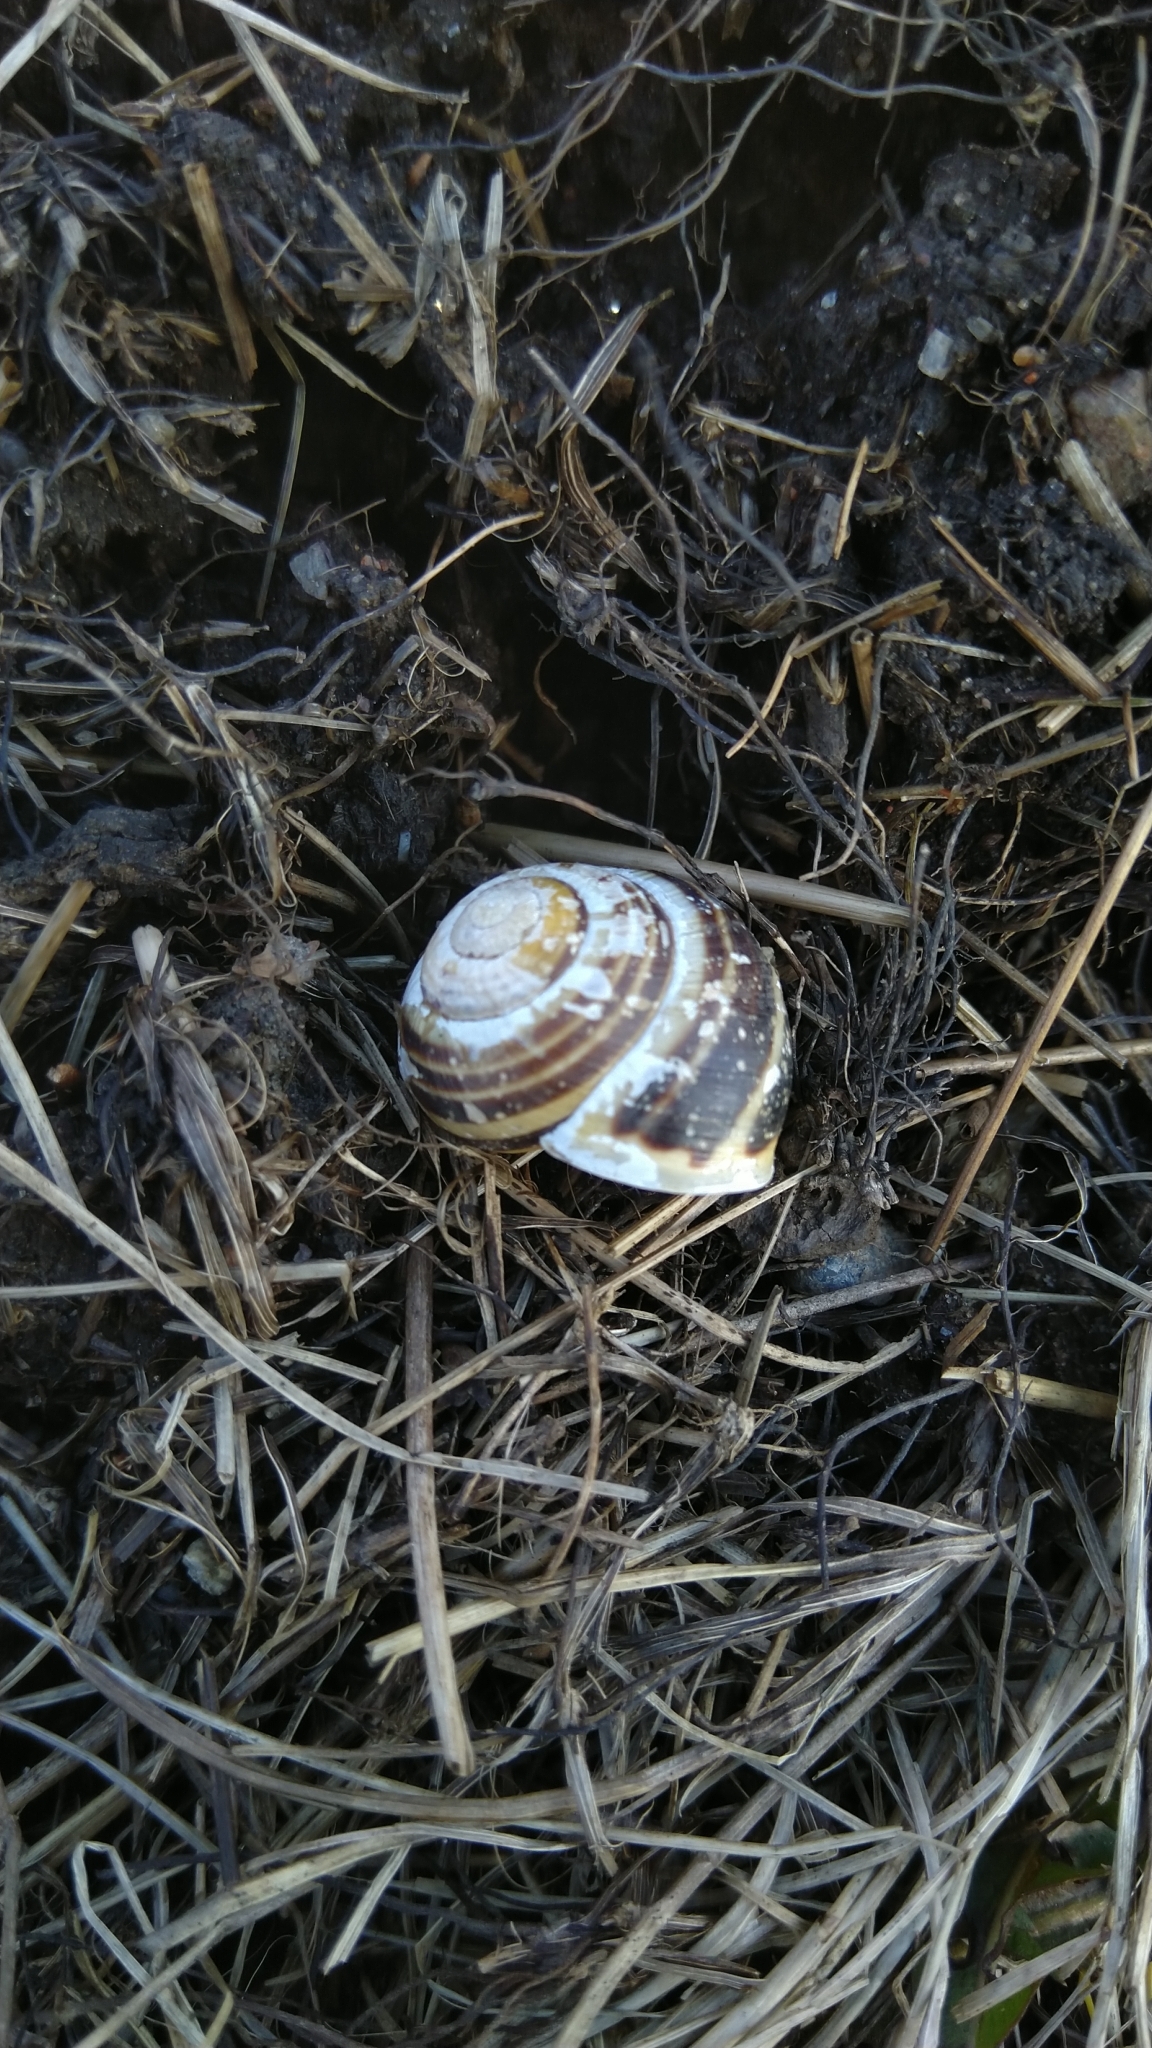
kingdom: Animalia
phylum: Mollusca
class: Gastropoda
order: Stylommatophora
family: Helicidae
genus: Cepaea
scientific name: Cepaea hortensis
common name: White-lip gardensnail
